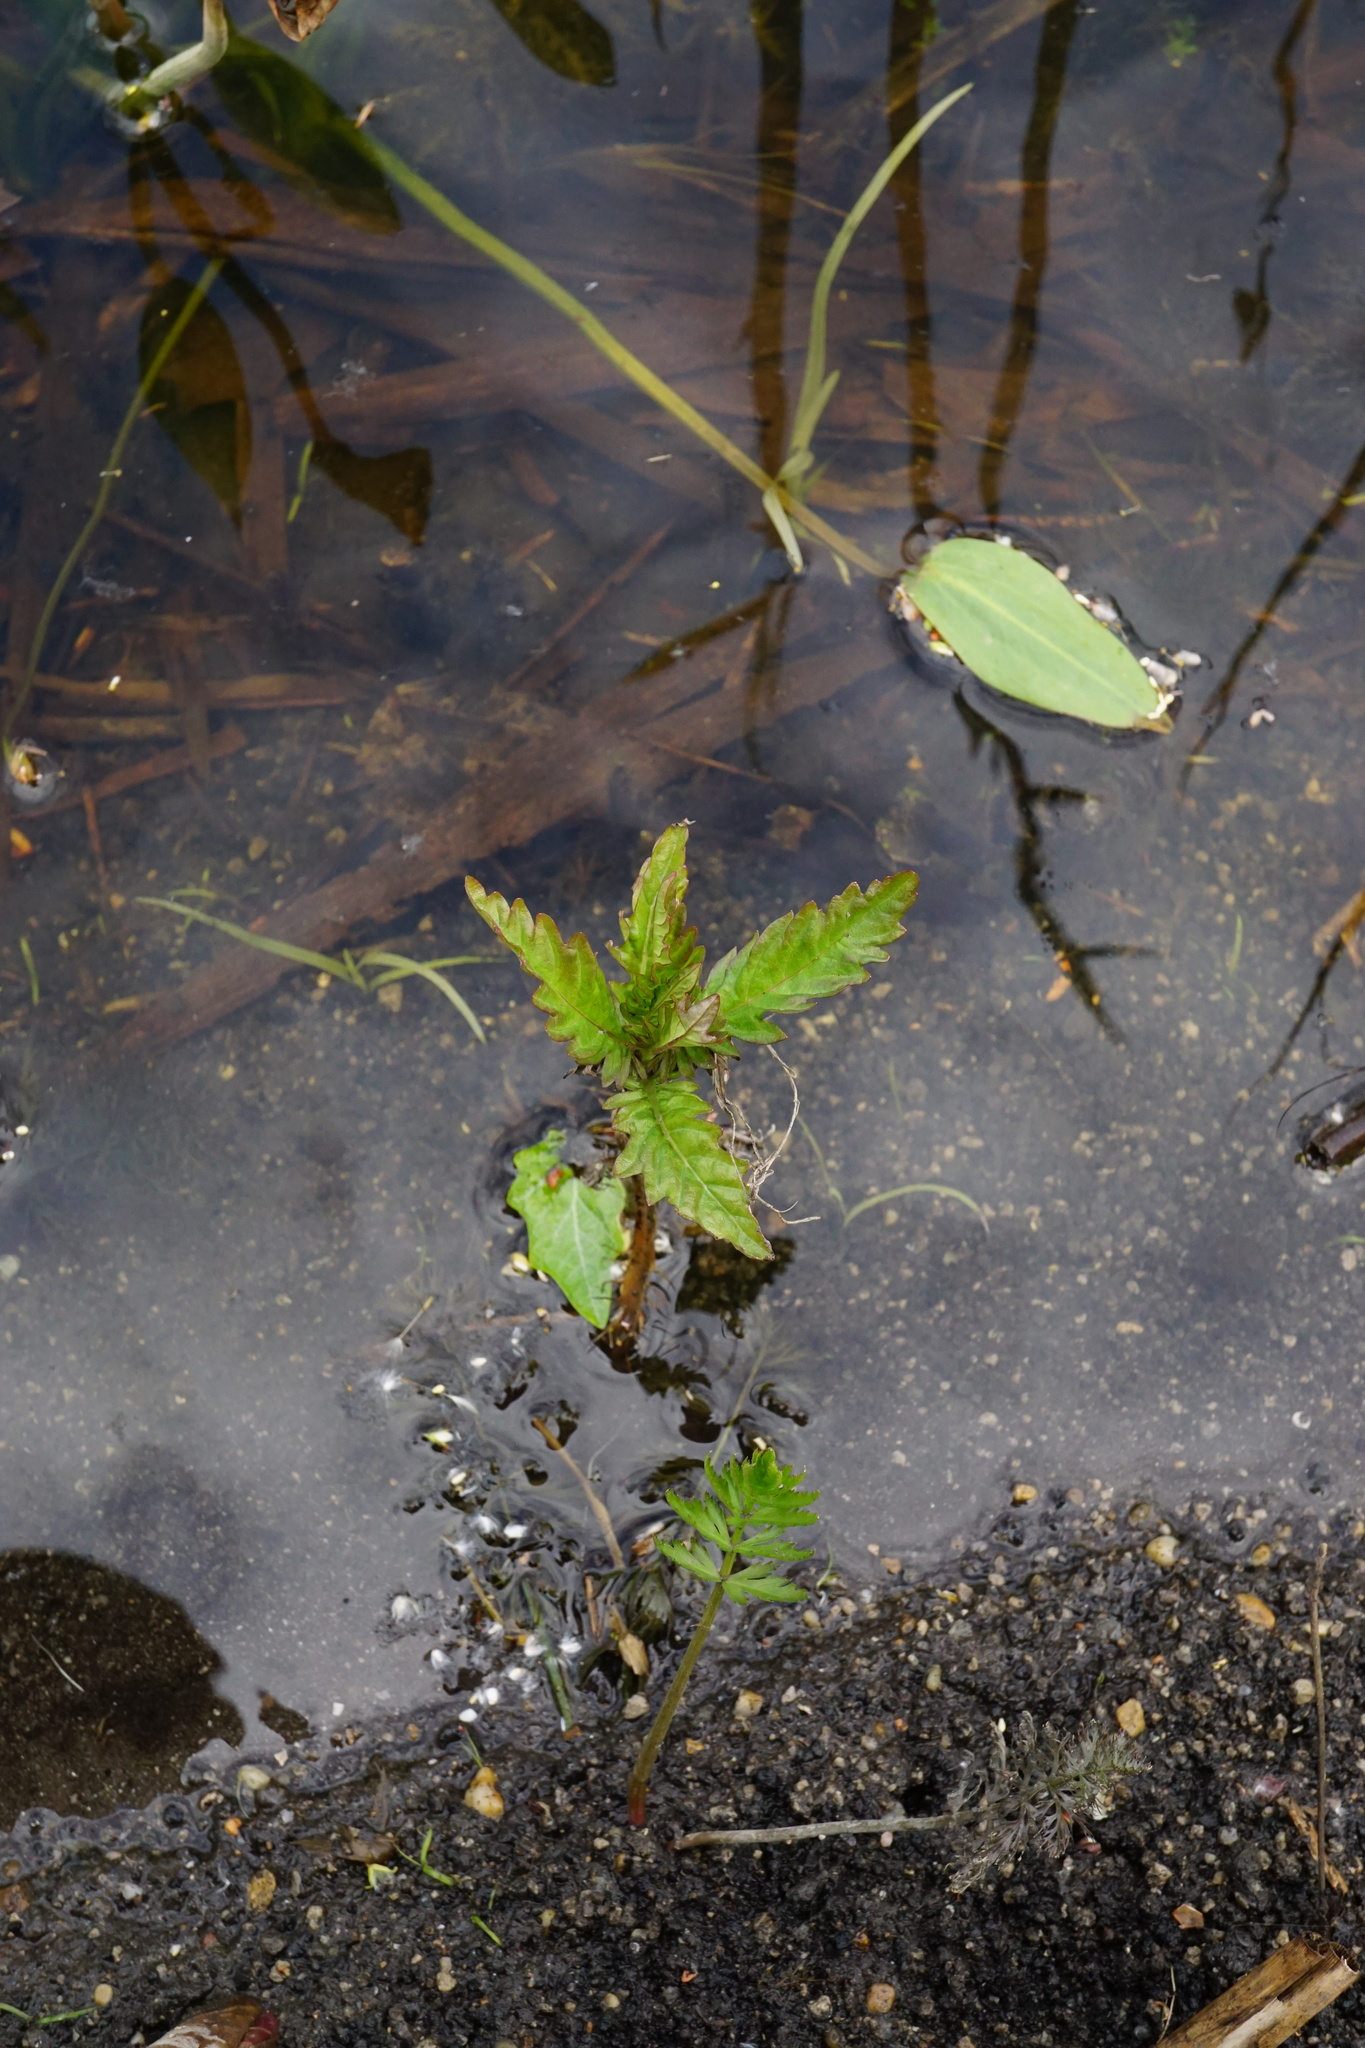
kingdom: Plantae
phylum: Tracheophyta
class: Magnoliopsida
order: Lamiales
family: Lamiaceae
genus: Lycopus
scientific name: Lycopus europaeus
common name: European bugleweed
